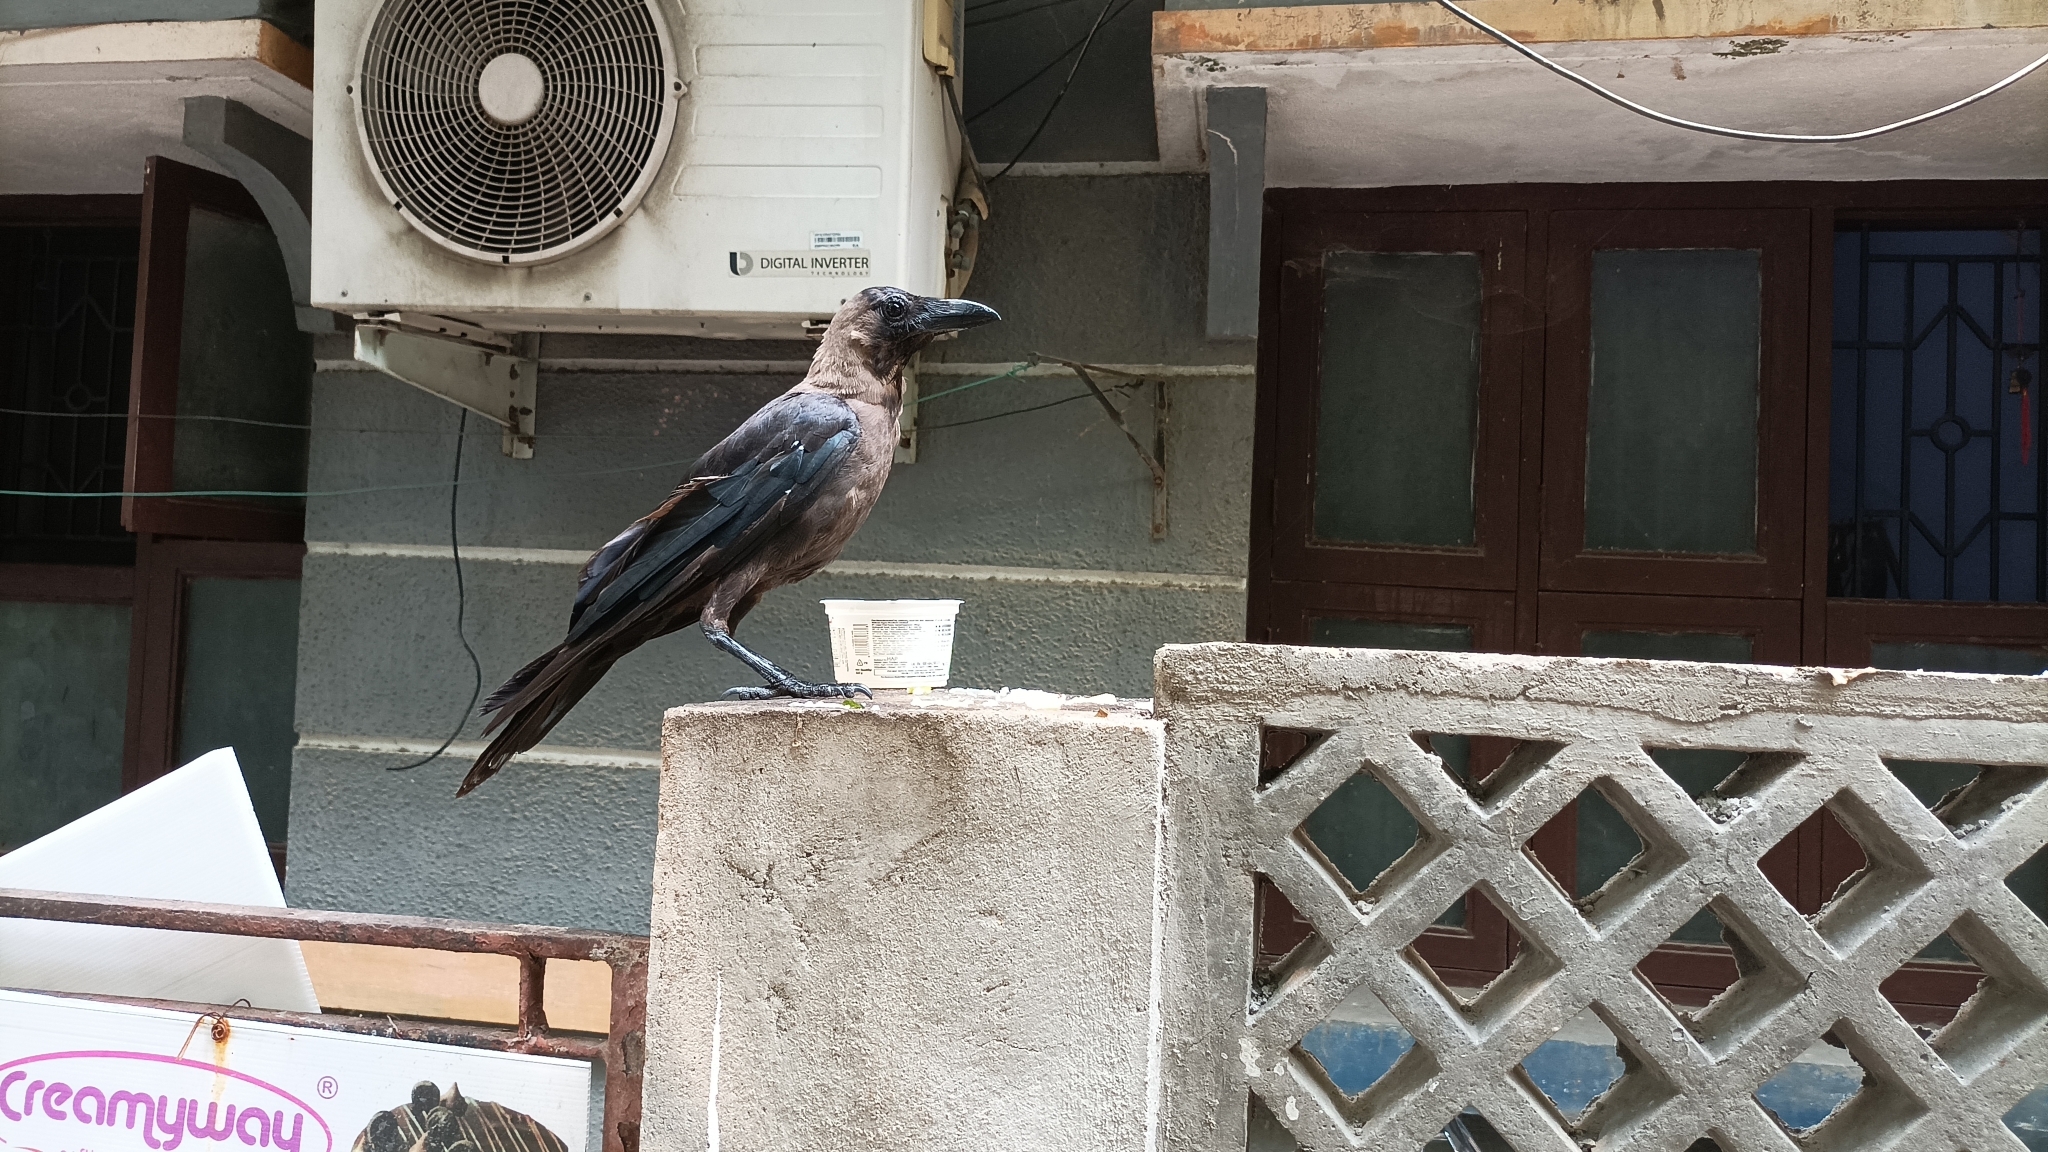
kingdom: Animalia
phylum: Chordata
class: Aves
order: Passeriformes
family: Corvidae
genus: Corvus
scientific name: Corvus splendens
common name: House crow
